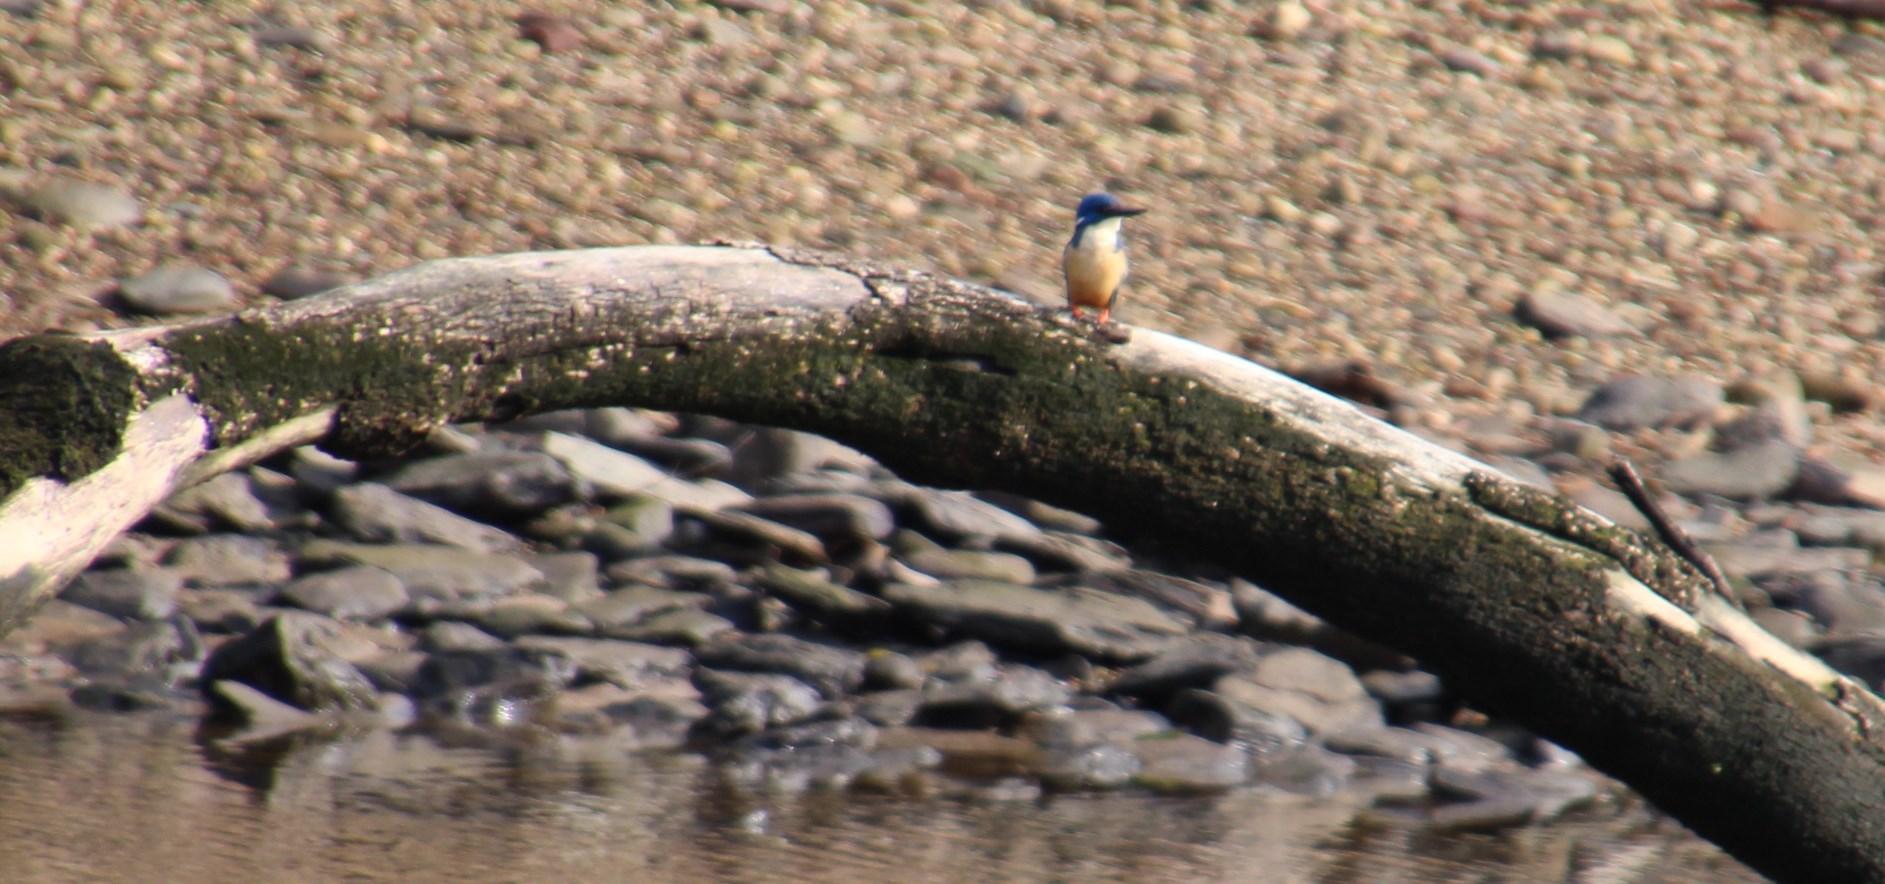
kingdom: Animalia
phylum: Chordata
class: Aves
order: Coraciiformes
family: Alcedinidae
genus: Alcedo
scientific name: Alcedo semitorquata
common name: Half-collared kingfisher
